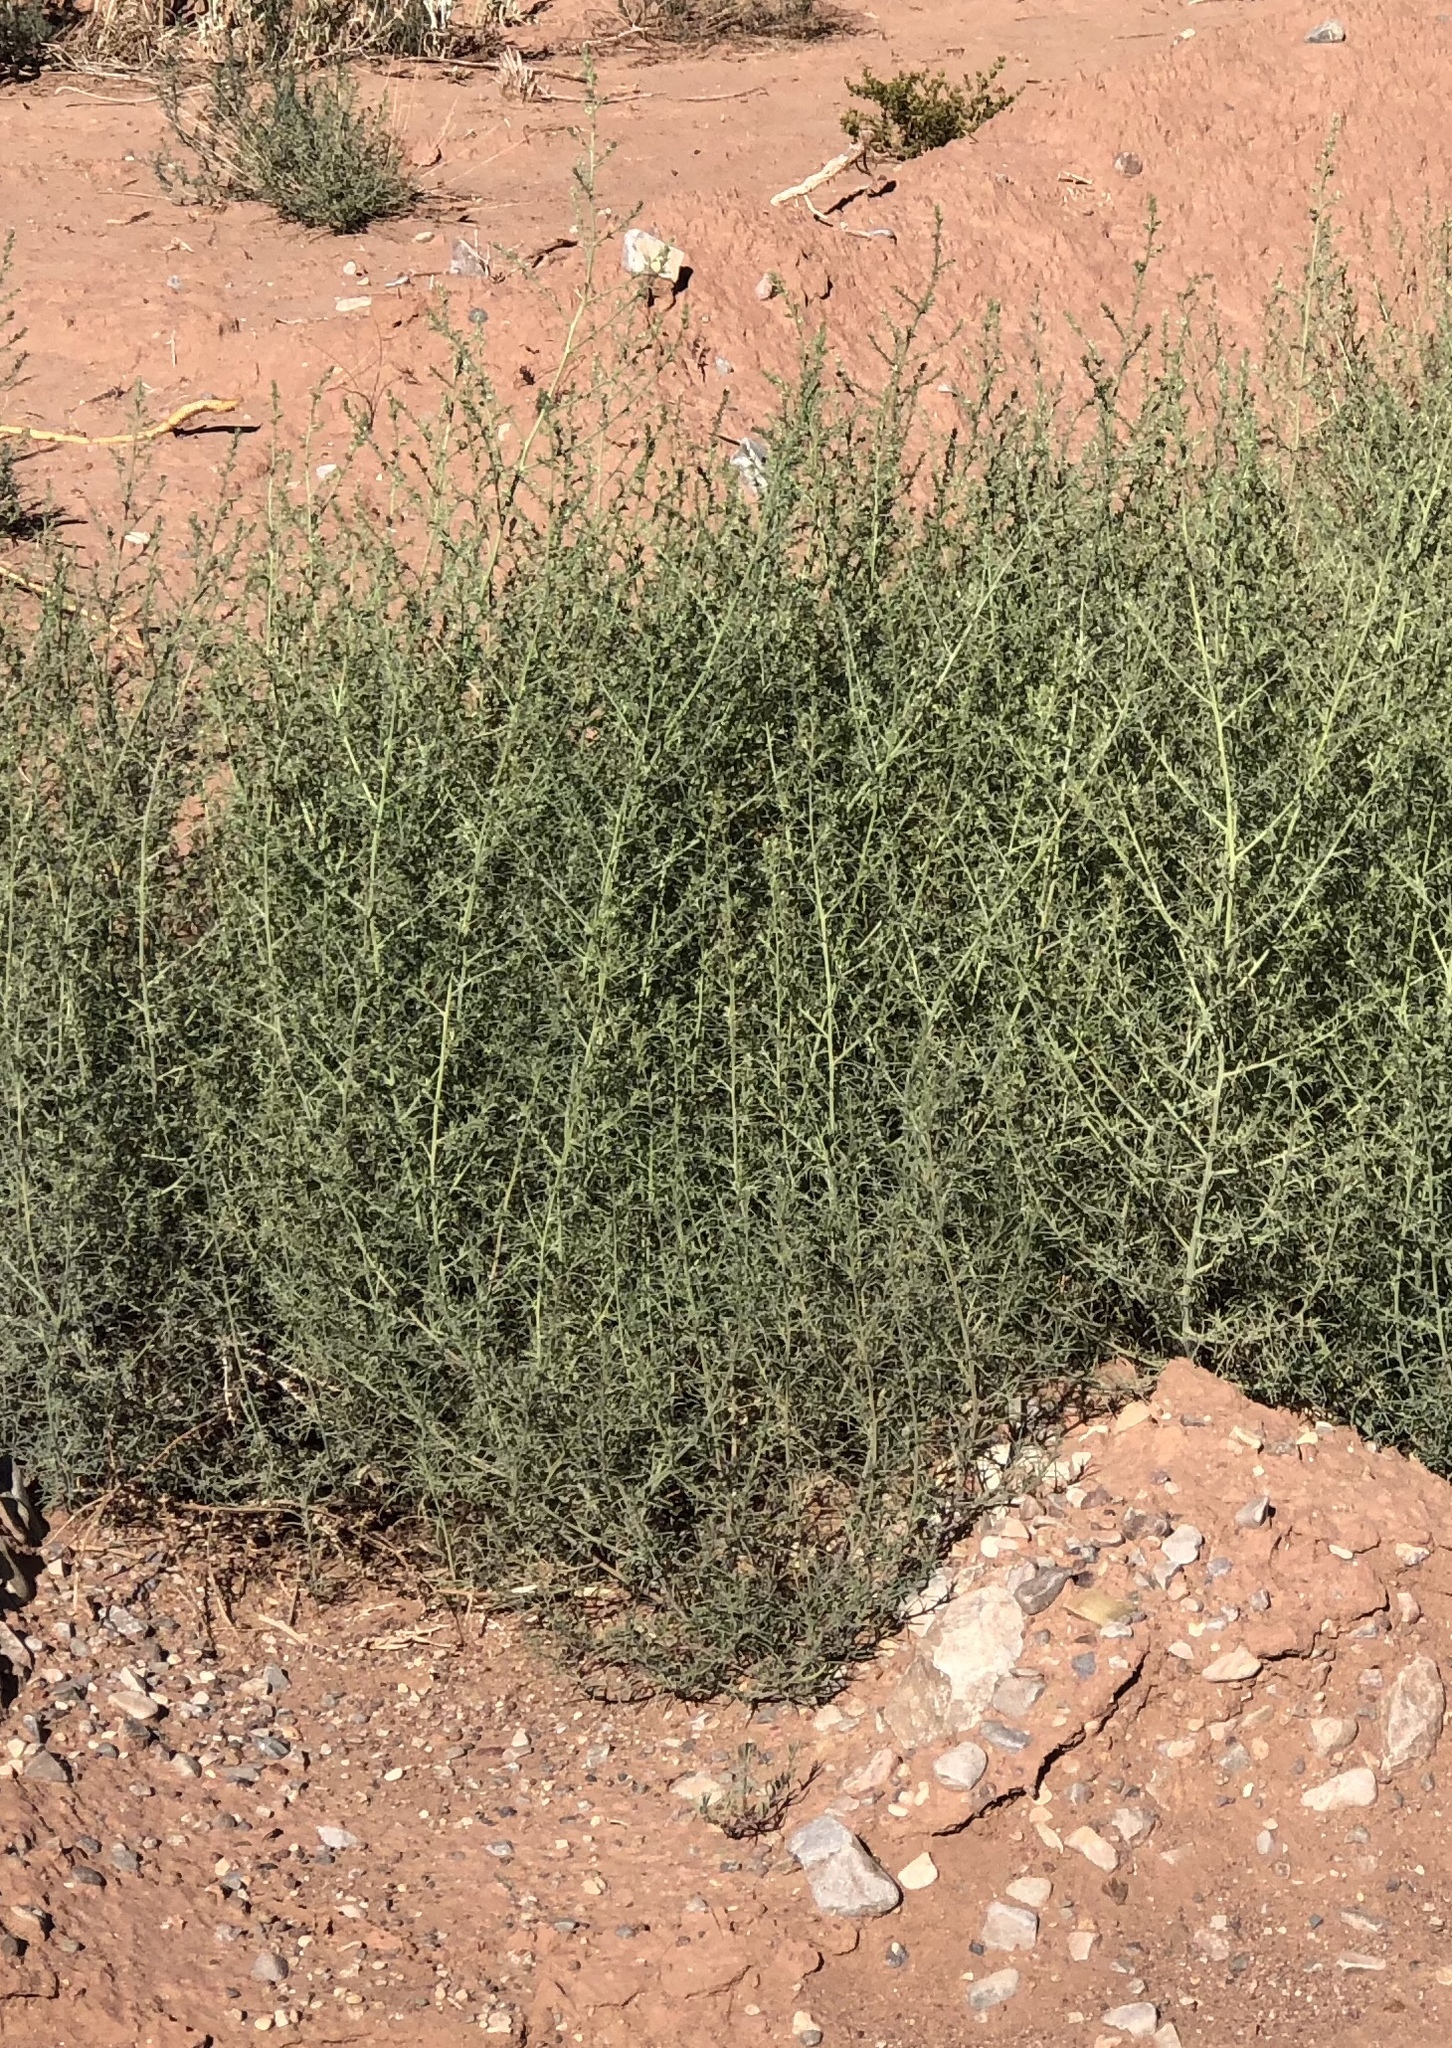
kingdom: Plantae
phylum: Tracheophyta
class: Magnoliopsida
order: Caryophyllales
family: Amaranthaceae
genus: Salsola
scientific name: Salsola tragus
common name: Prickly russian thistle
